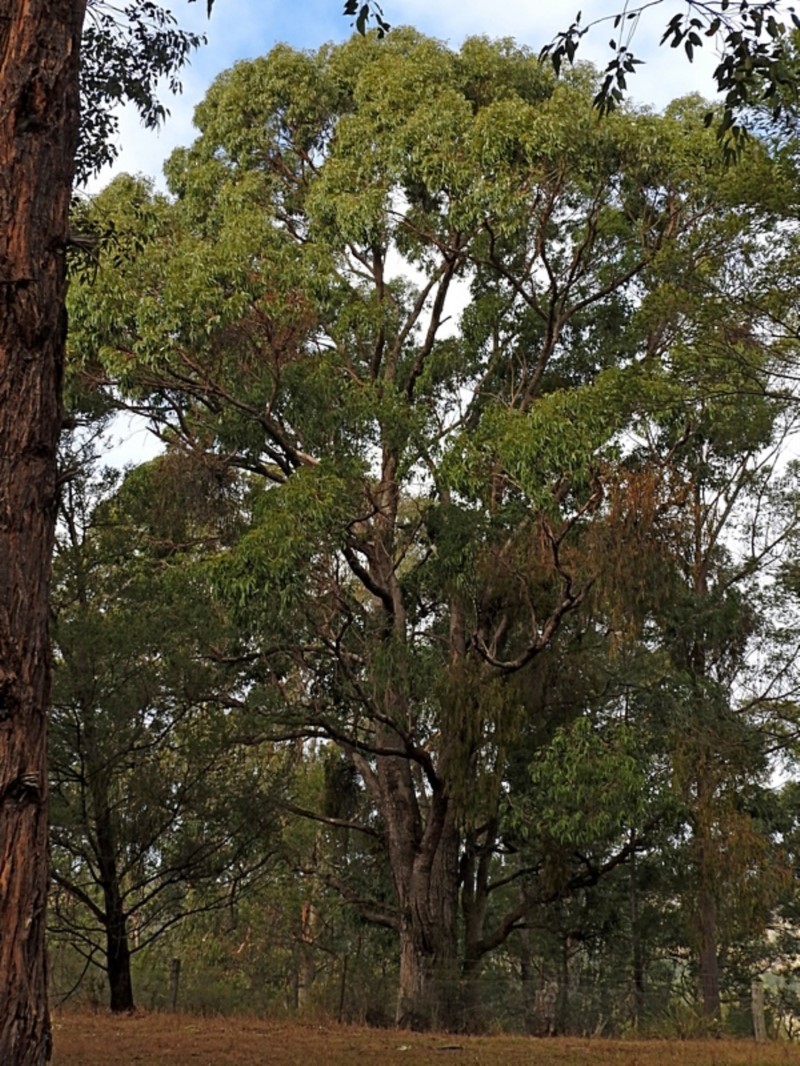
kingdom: Plantae
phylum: Tracheophyta
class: Magnoliopsida
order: Myrtales
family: Myrtaceae
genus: Eucalyptus
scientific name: Eucalyptus angophoroides
